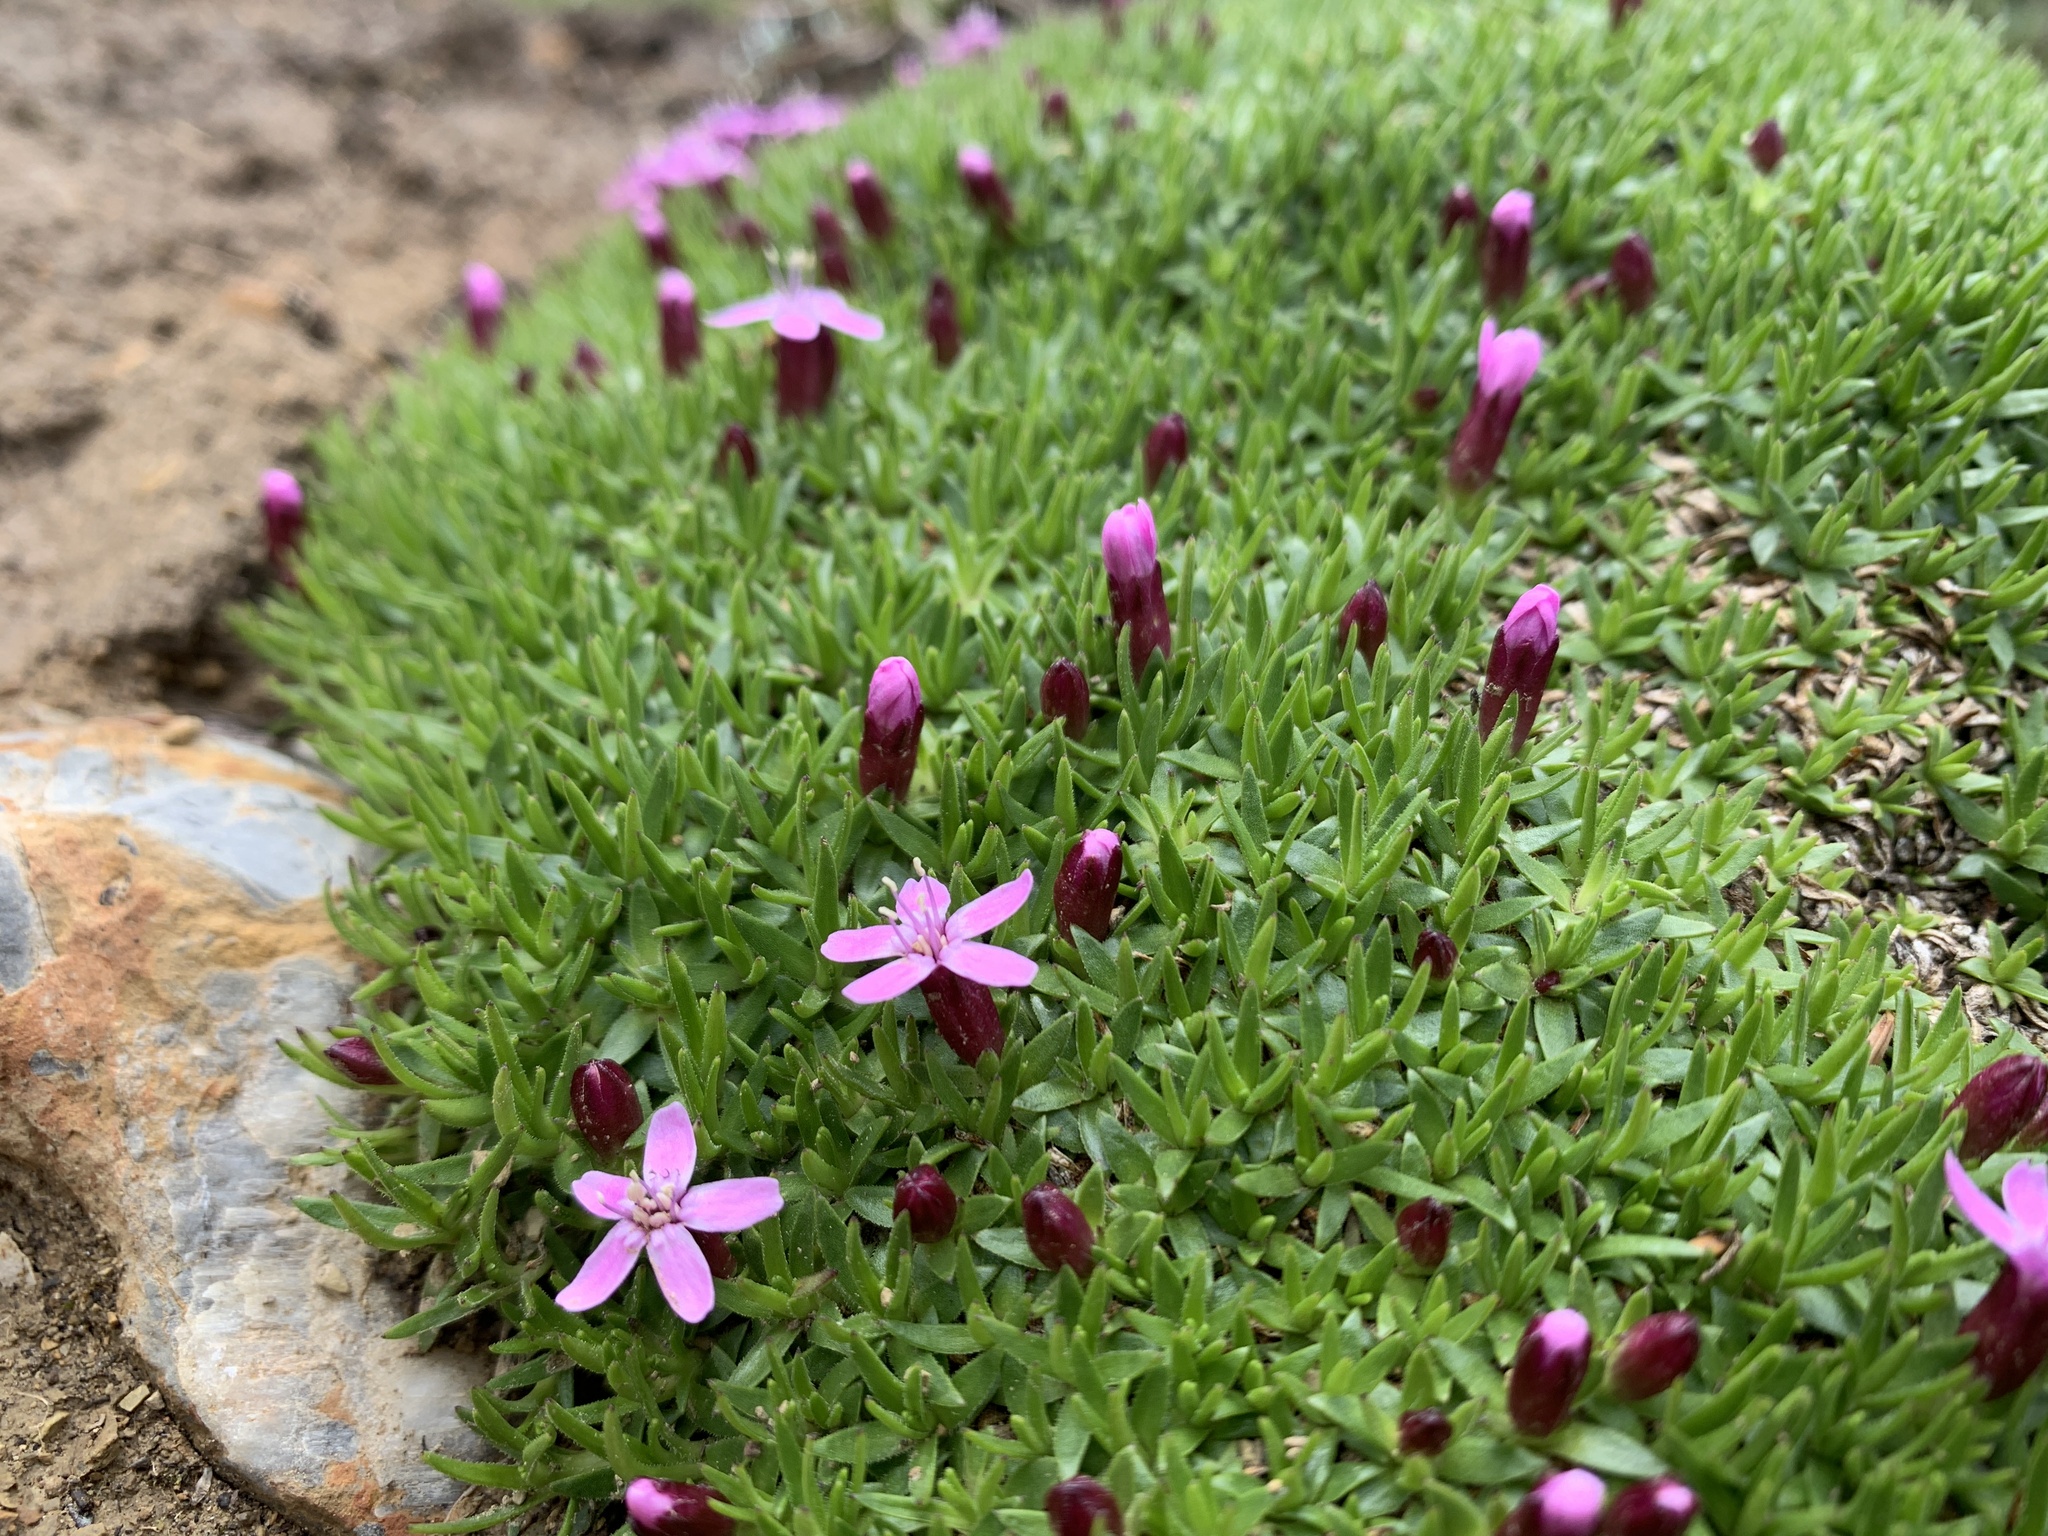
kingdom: Plantae
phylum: Tracheophyta
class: Magnoliopsida
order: Caryophyllales
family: Caryophyllaceae
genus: Silene
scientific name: Silene acaulis
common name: Moss campion
